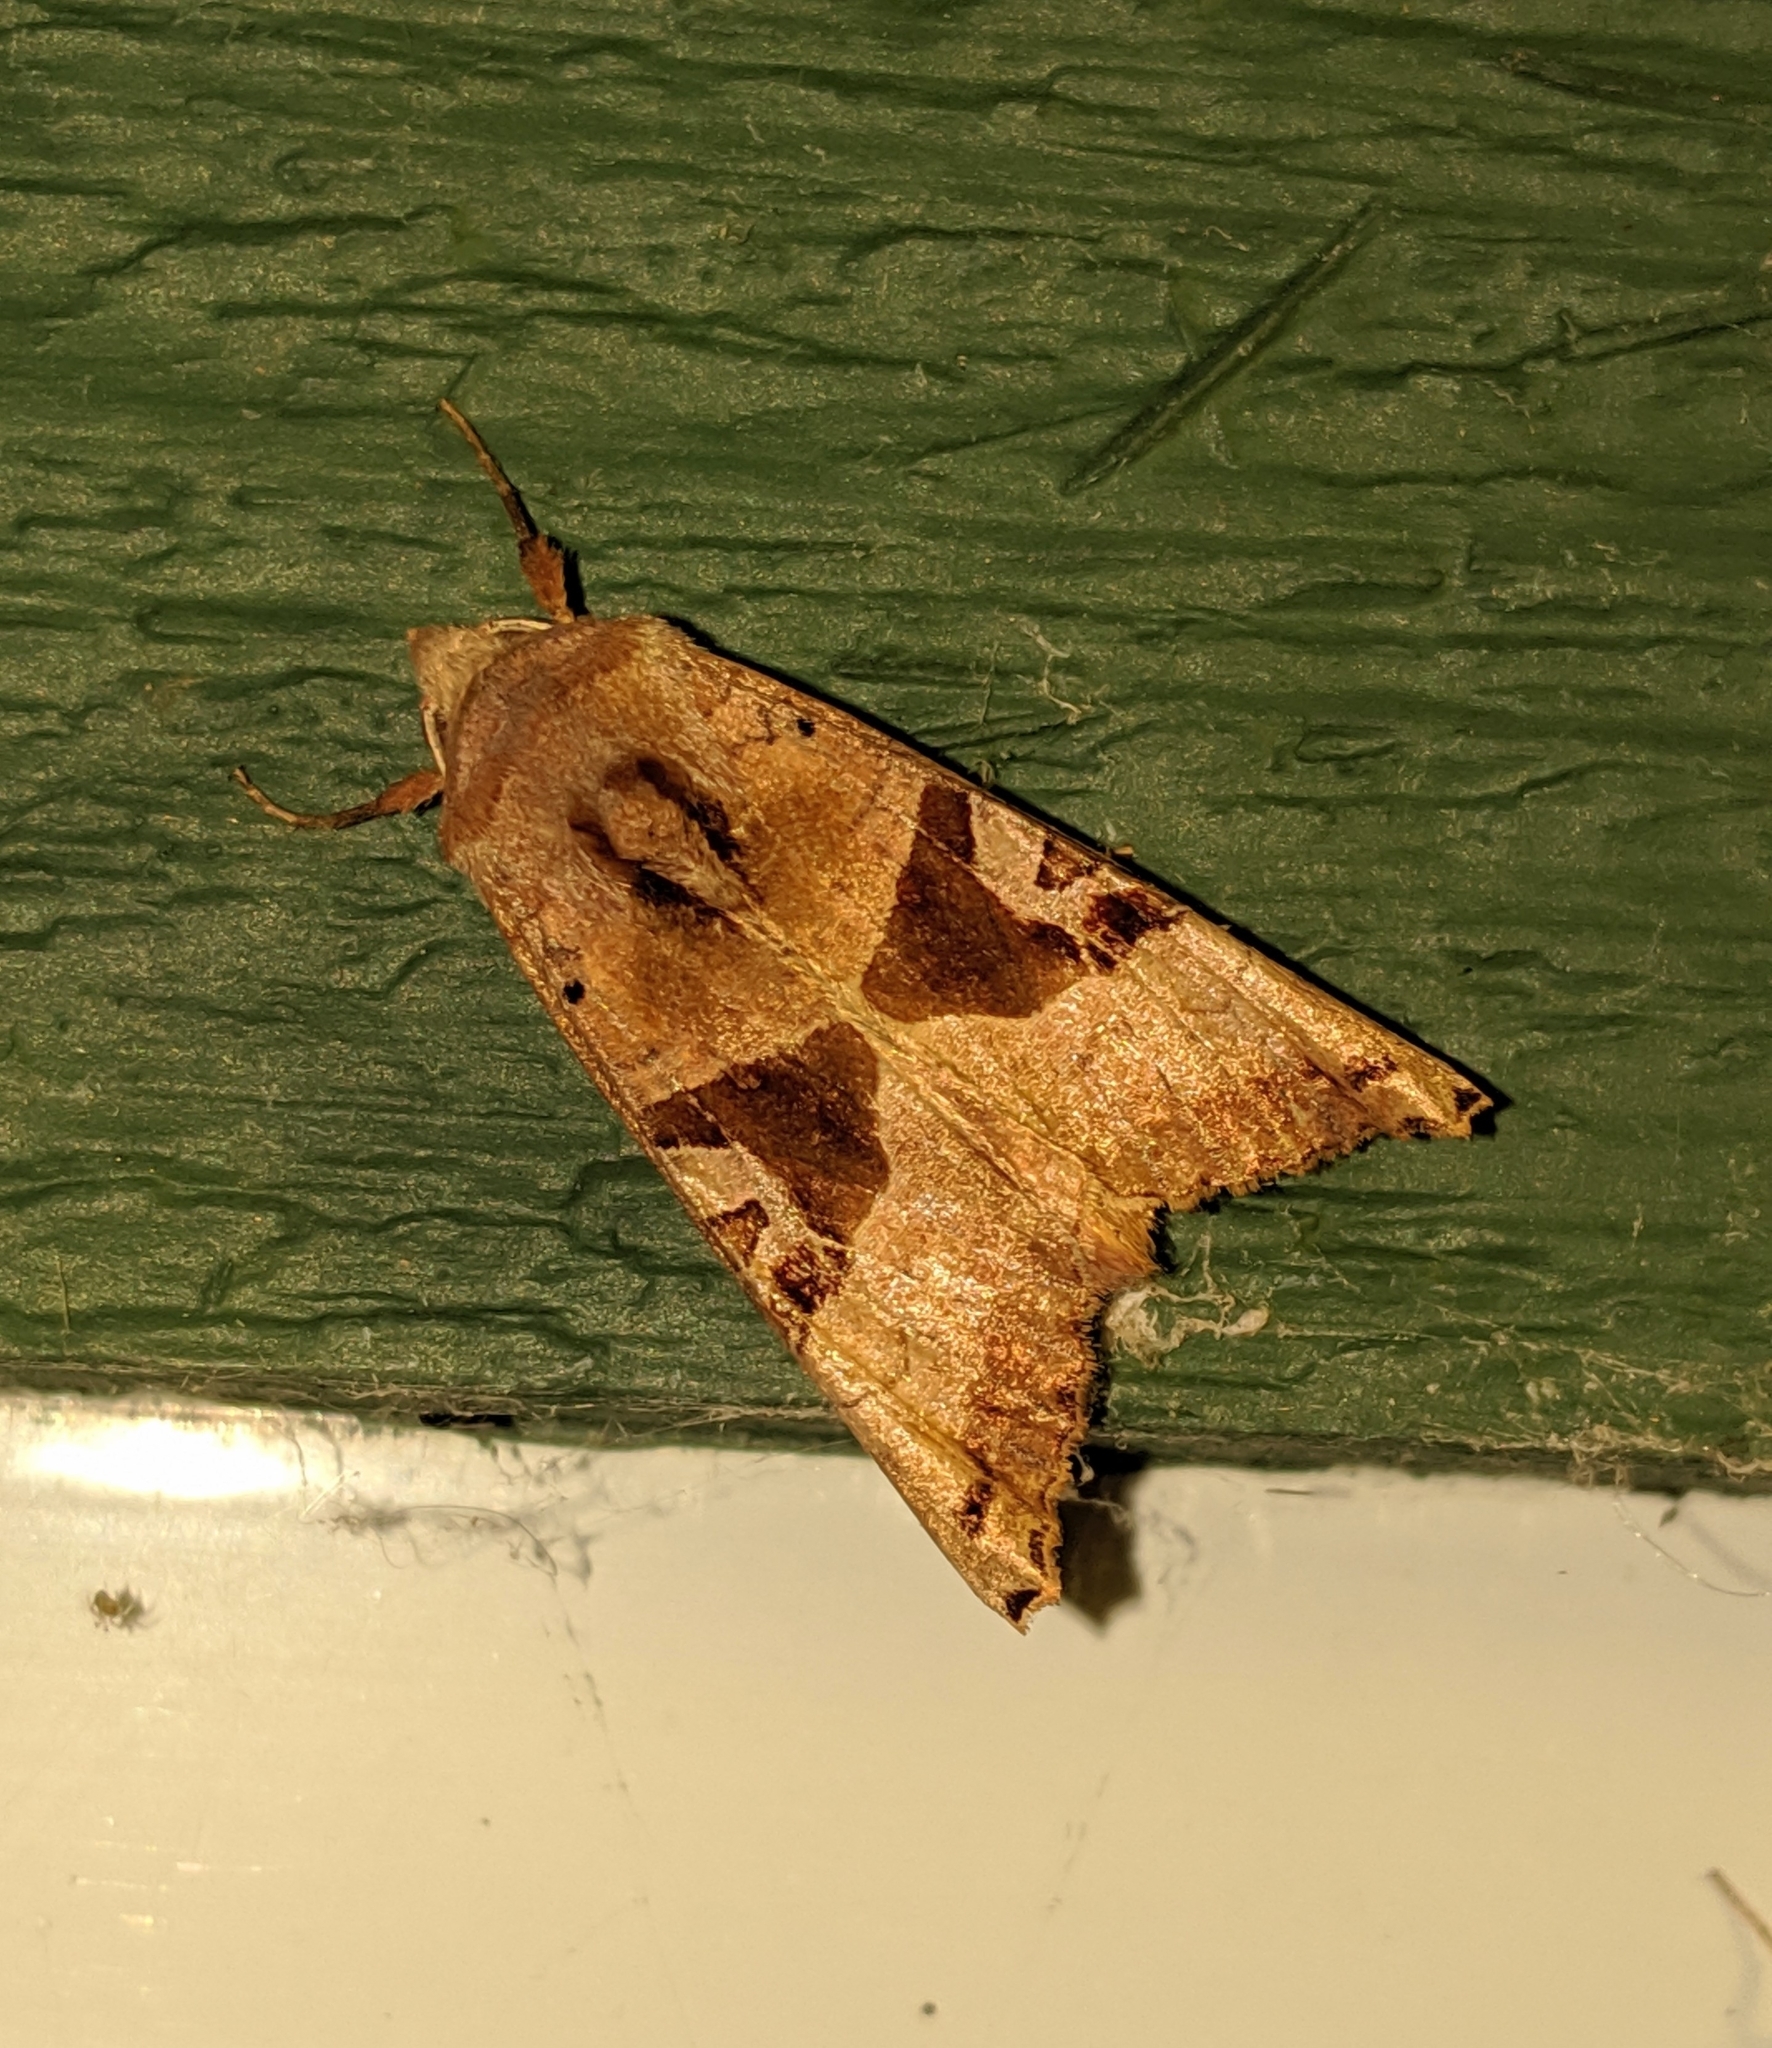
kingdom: Animalia
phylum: Arthropoda
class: Insecta
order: Lepidoptera
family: Noctuidae
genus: Phlogophora
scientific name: Phlogophora periculosa
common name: Brown angle shades
